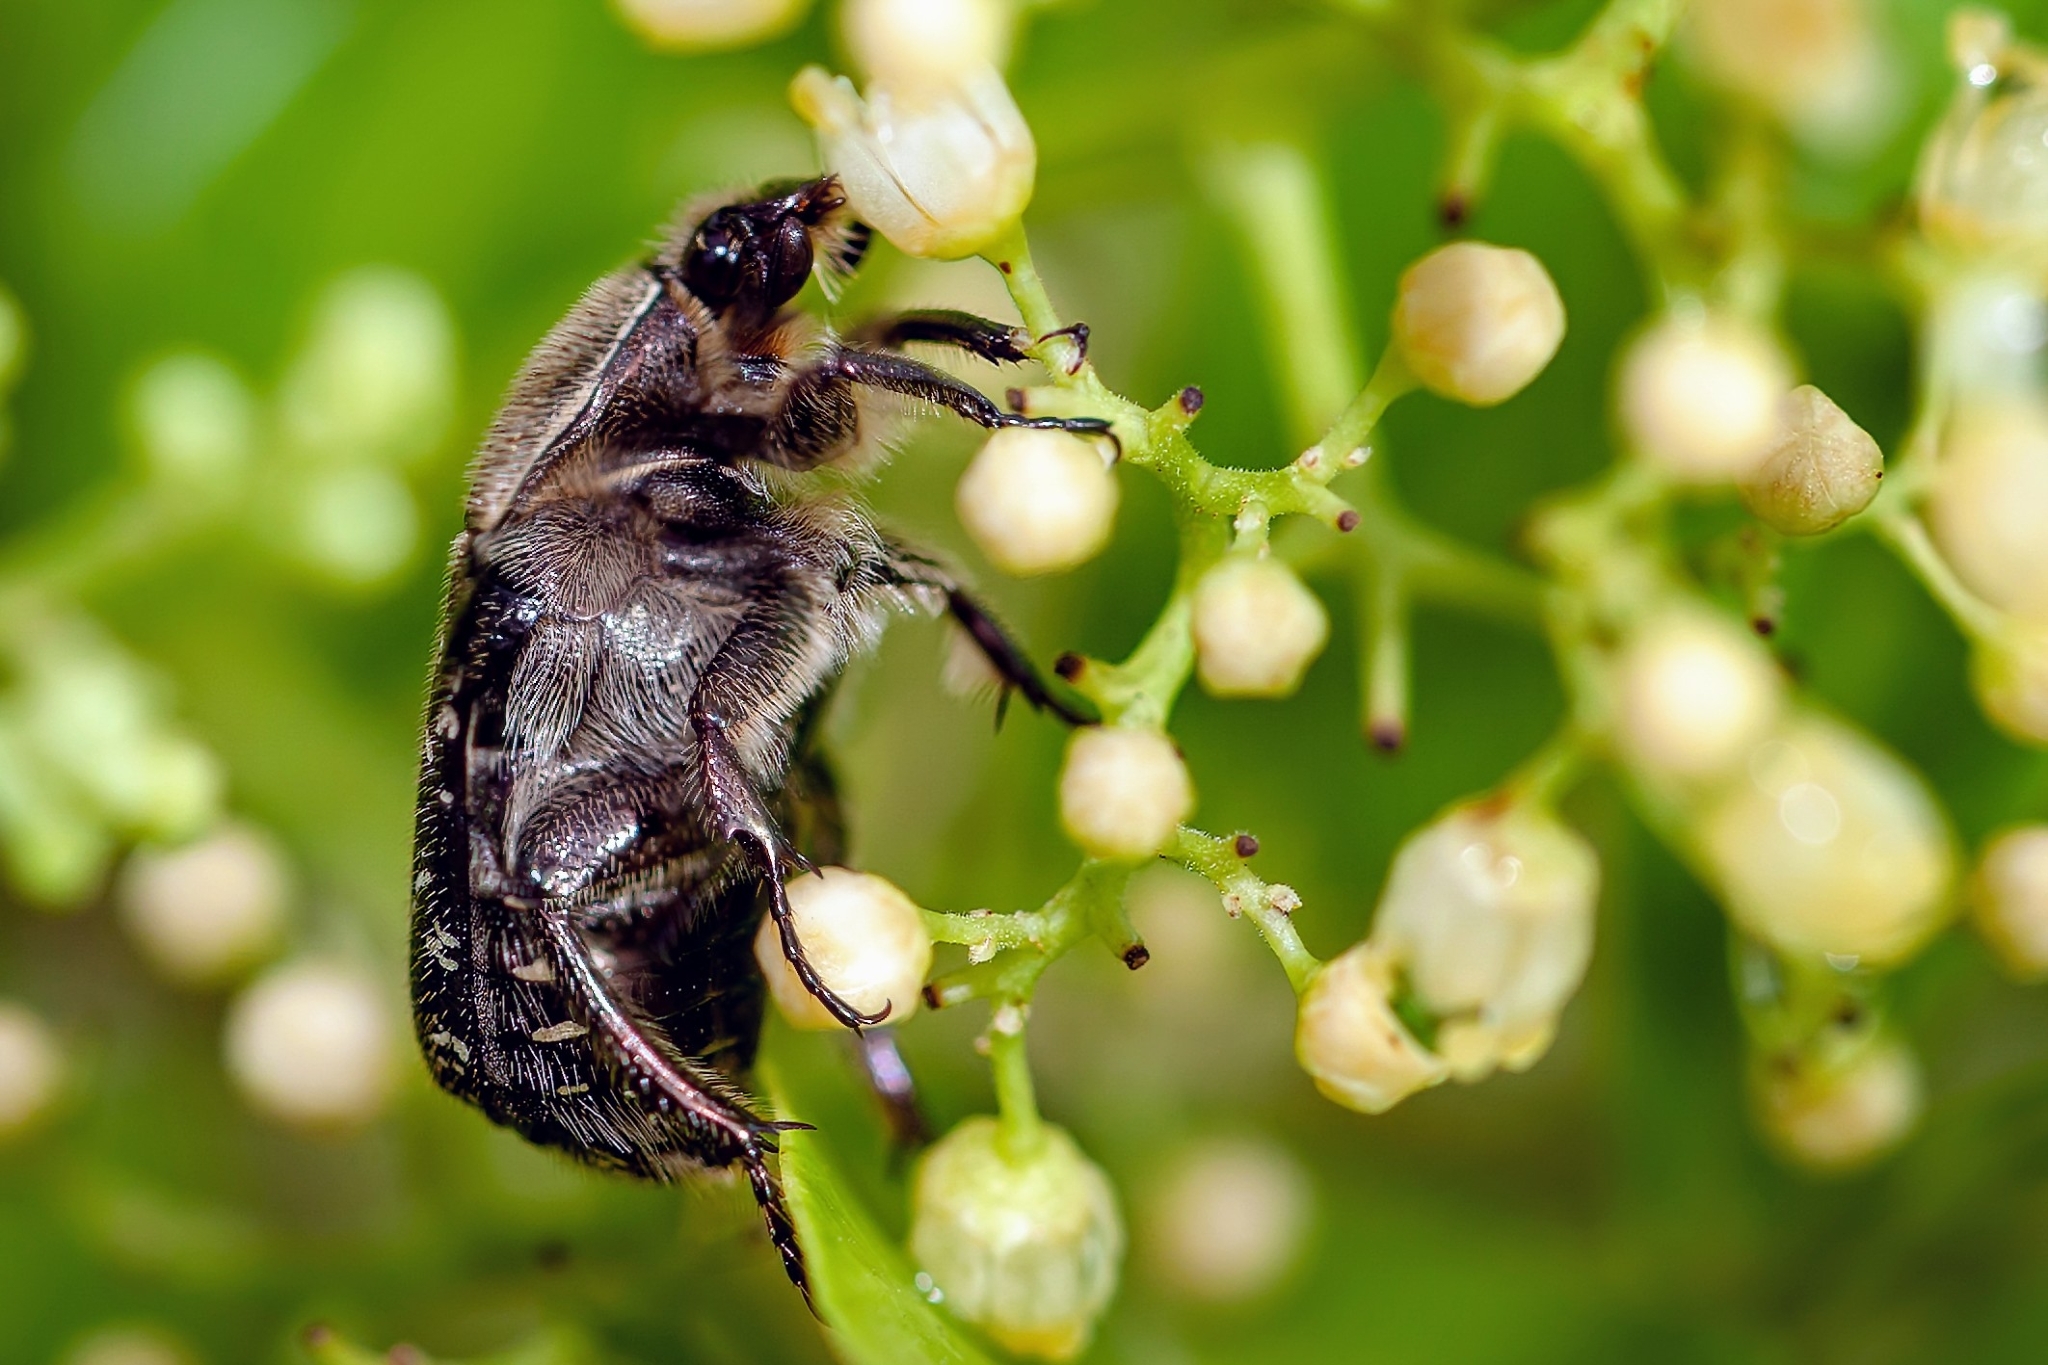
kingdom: Animalia
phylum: Arthropoda
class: Insecta
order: Coleoptera
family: Scarabaeidae
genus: Euphoria
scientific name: Euphoria sepulcralis
